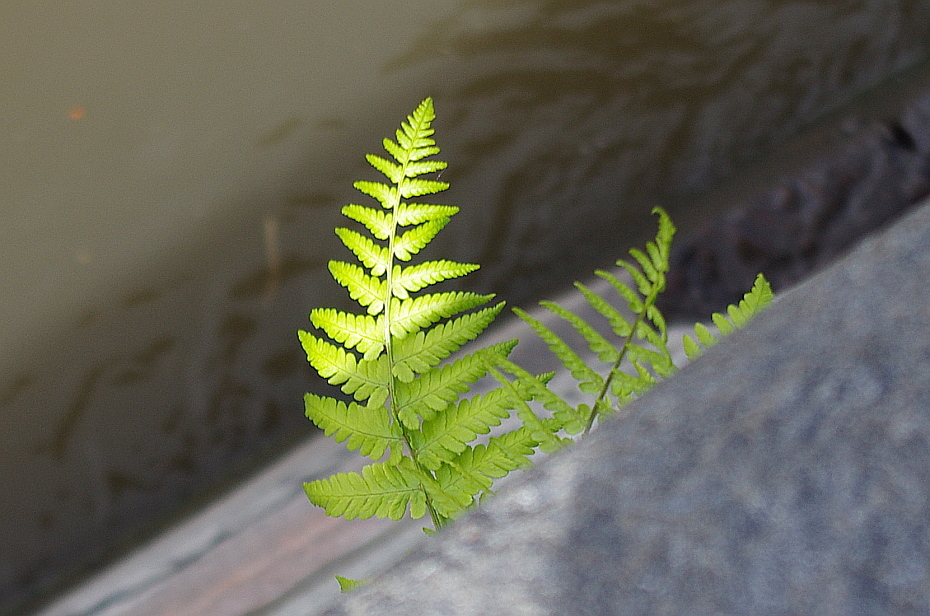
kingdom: Plantae
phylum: Tracheophyta
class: Polypodiopsida
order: Polypodiales
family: Dryopteridaceae
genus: Dryopteris
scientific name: Dryopteris filix-mas
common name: Male fern
